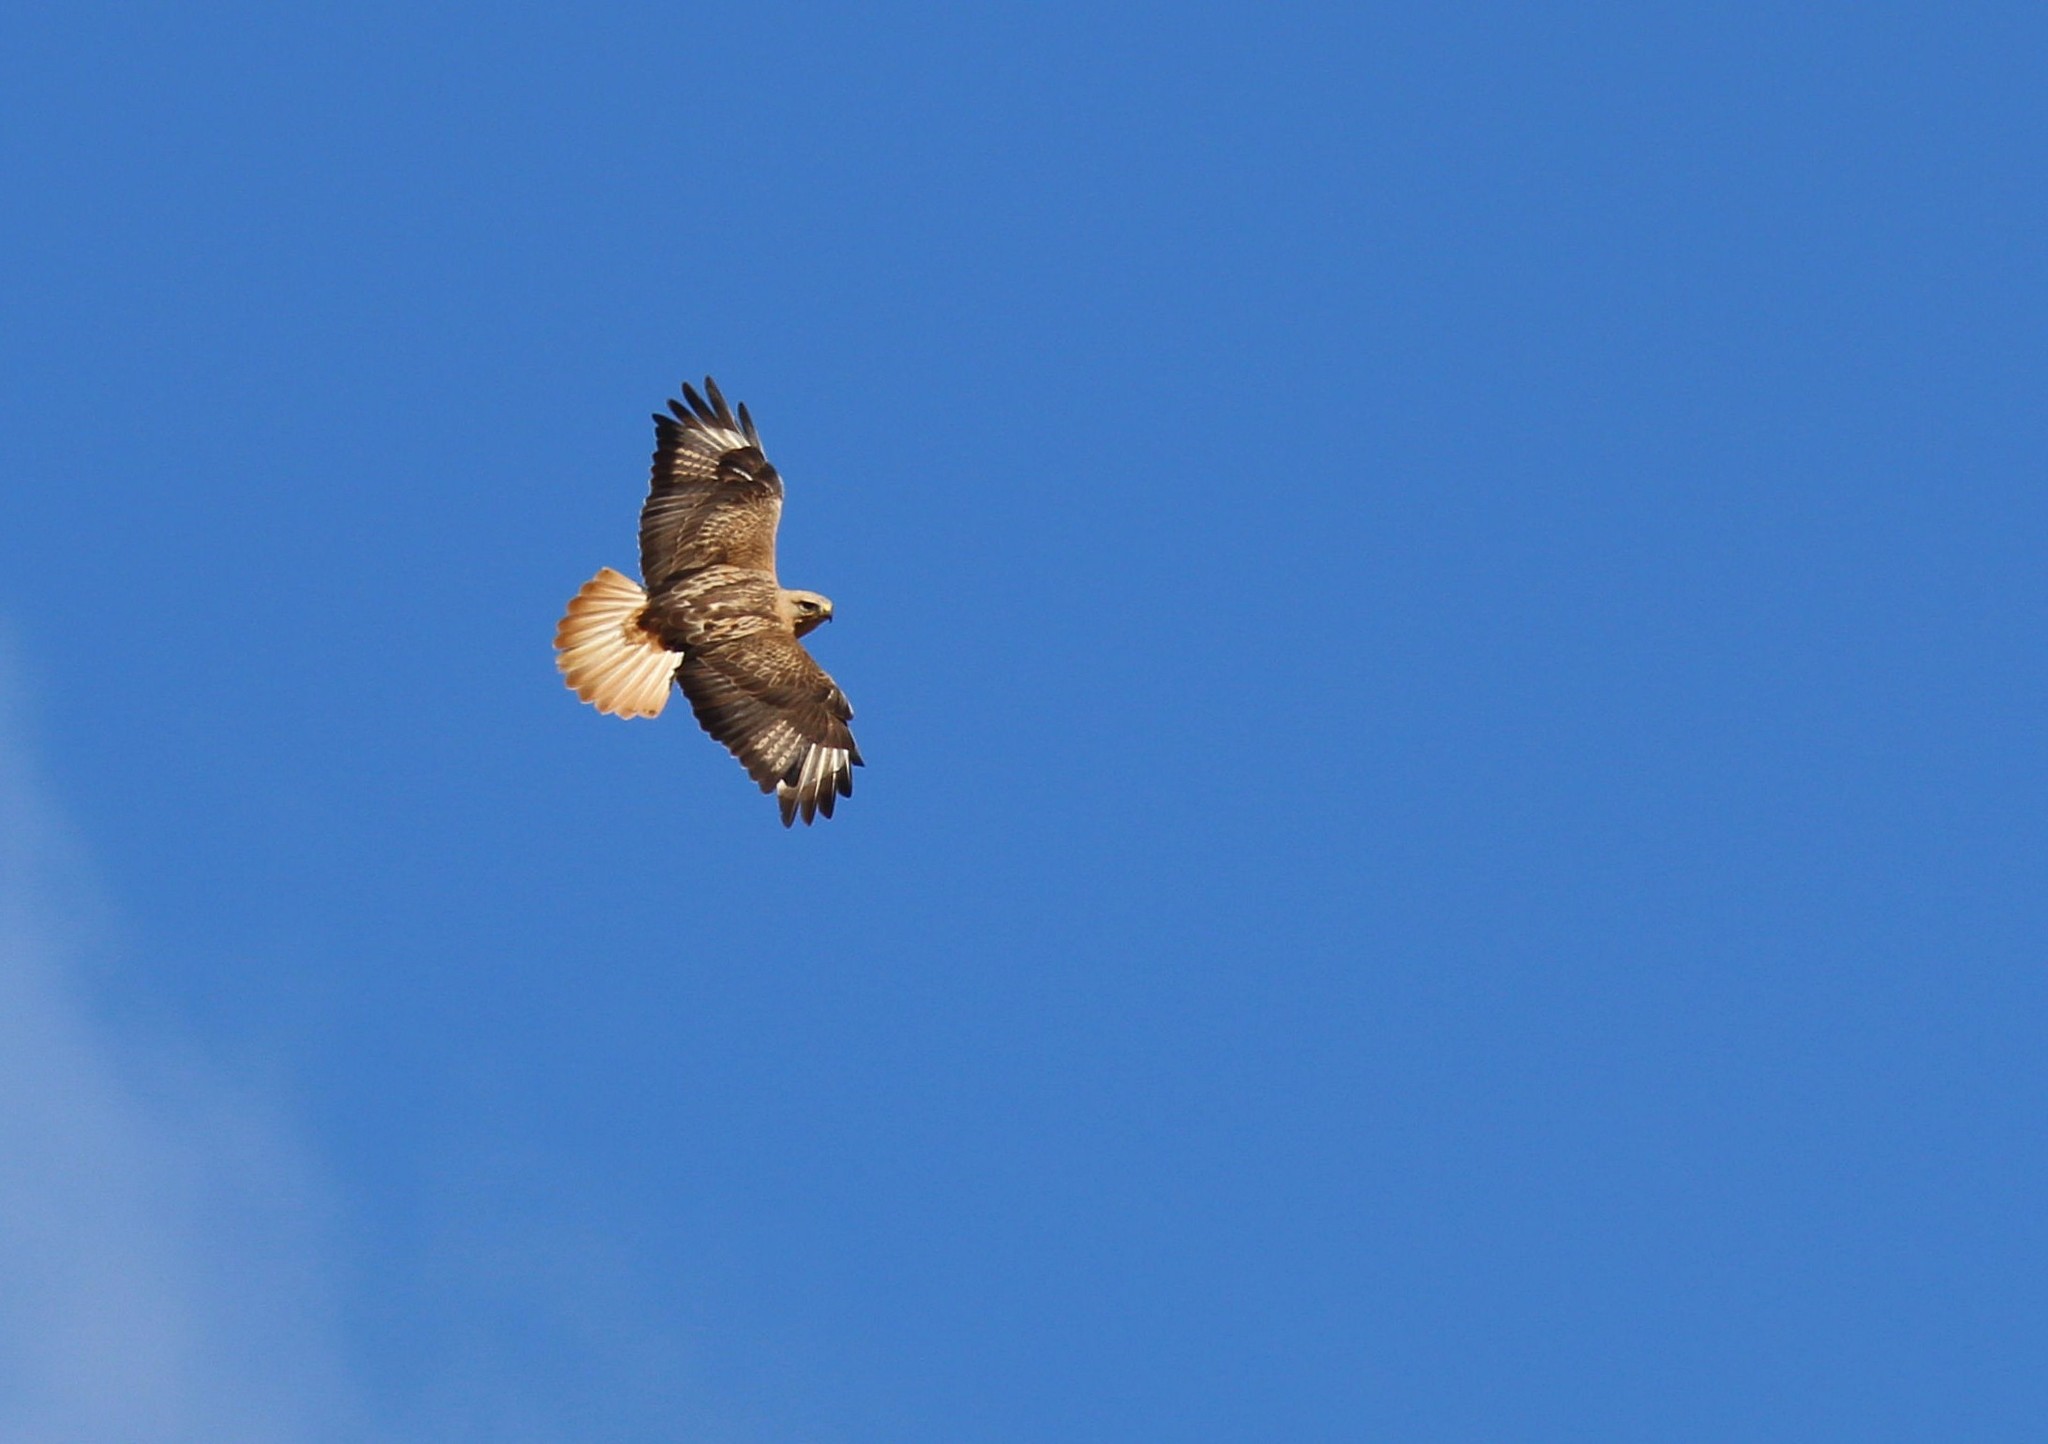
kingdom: Animalia
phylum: Chordata
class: Aves
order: Accipitriformes
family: Accipitridae
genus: Buteo
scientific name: Buteo rufinus
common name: Long-legged buzzard
